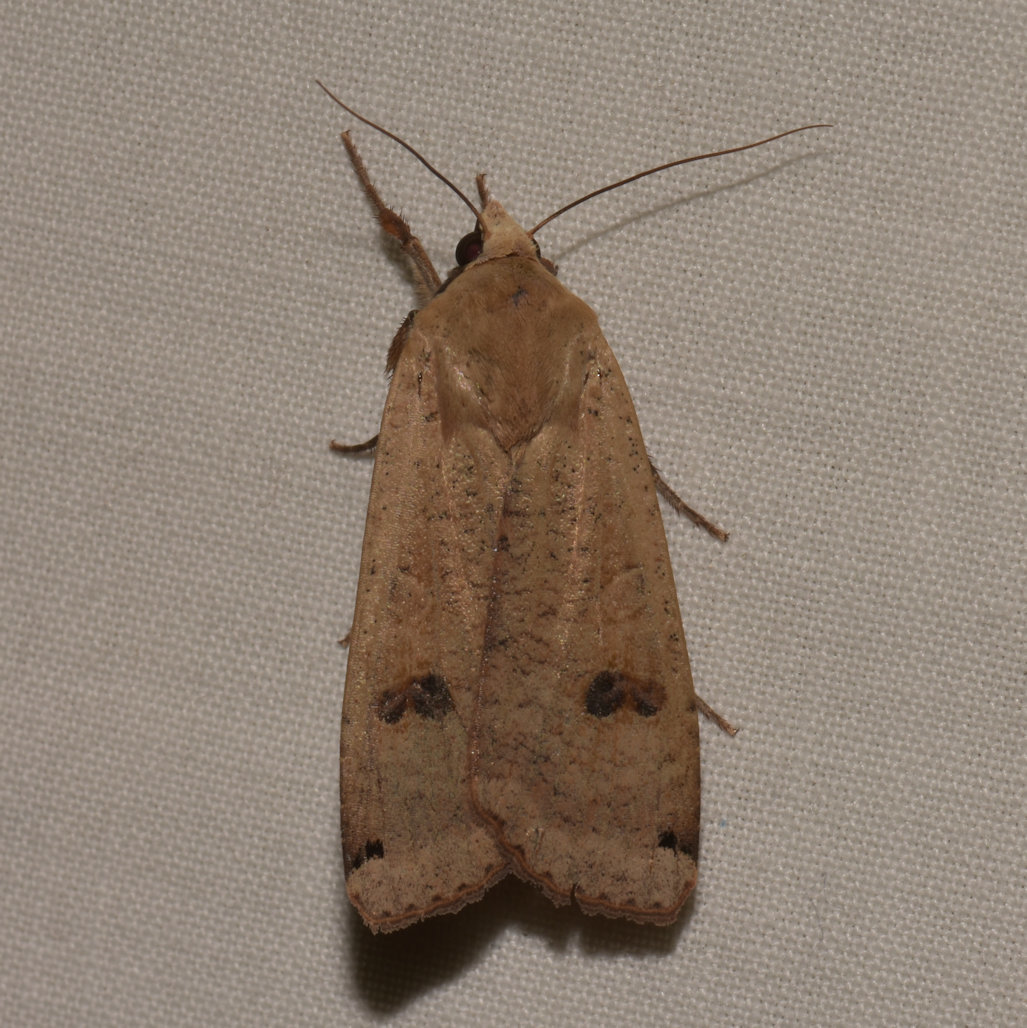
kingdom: Animalia
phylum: Arthropoda
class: Insecta
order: Lepidoptera
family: Noctuidae
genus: Noctua
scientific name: Noctua pronuba
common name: Large yellow underwing
